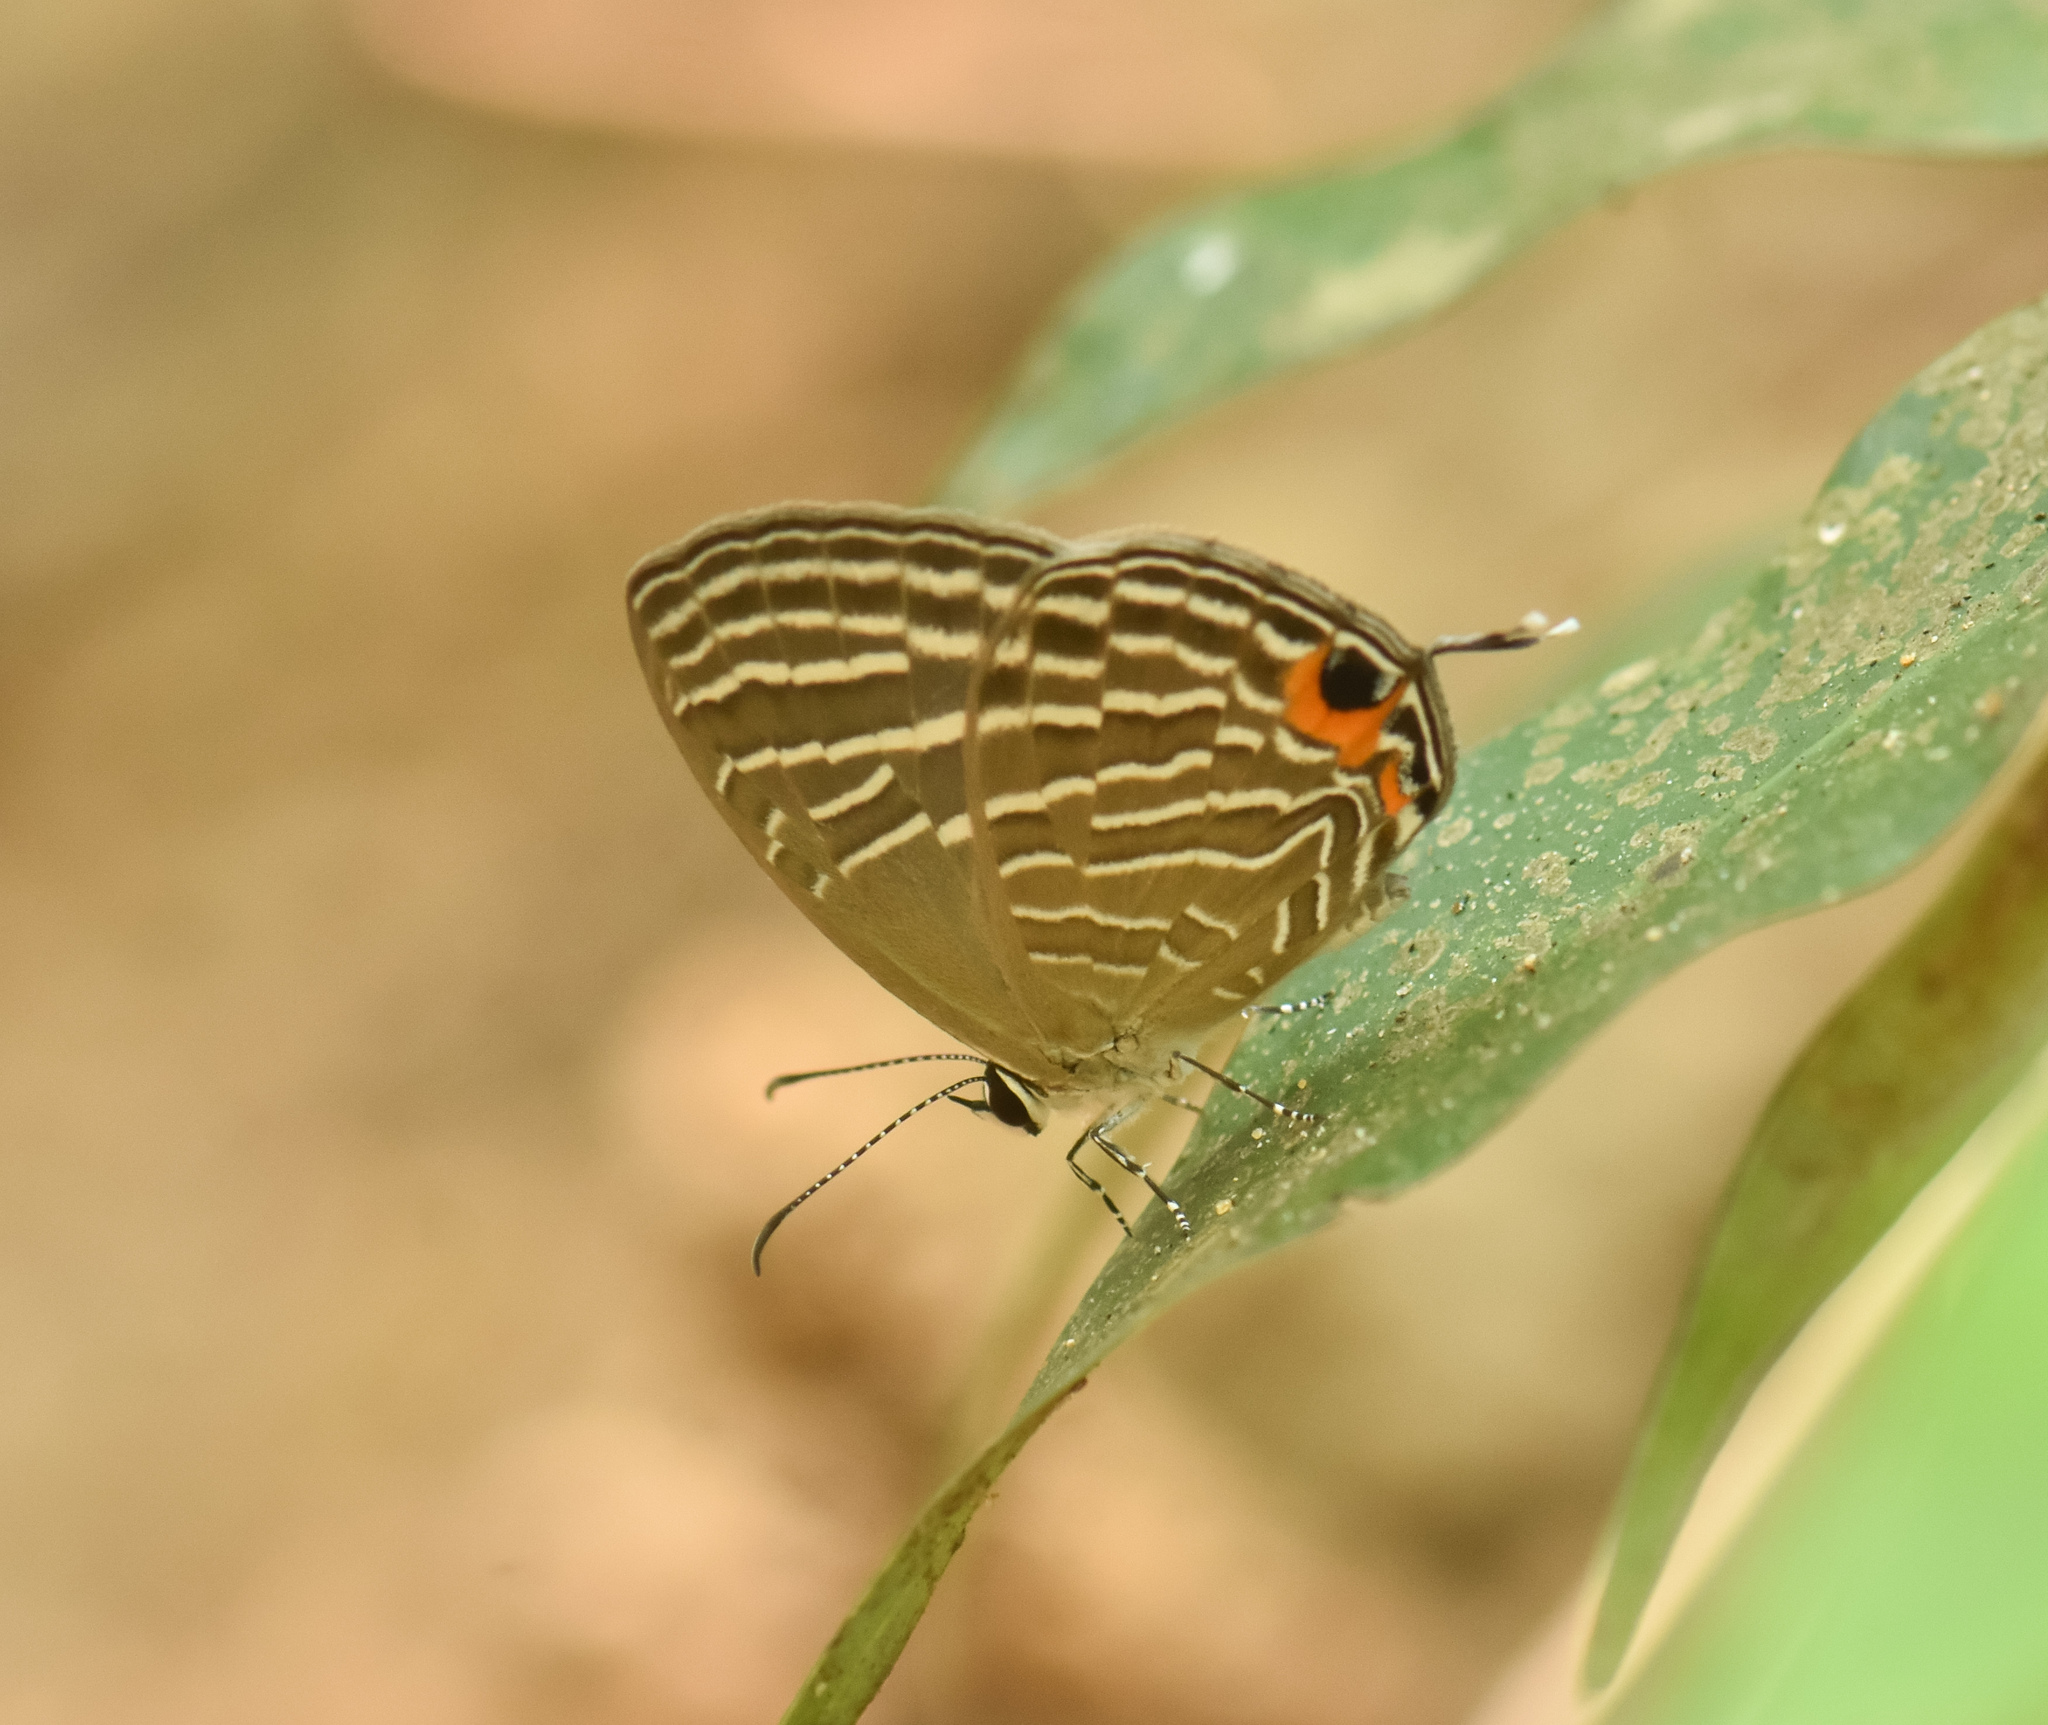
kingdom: Animalia
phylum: Arthropoda
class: Insecta
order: Lepidoptera
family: Lycaenidae
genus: Jamides
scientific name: Jamides celeno
